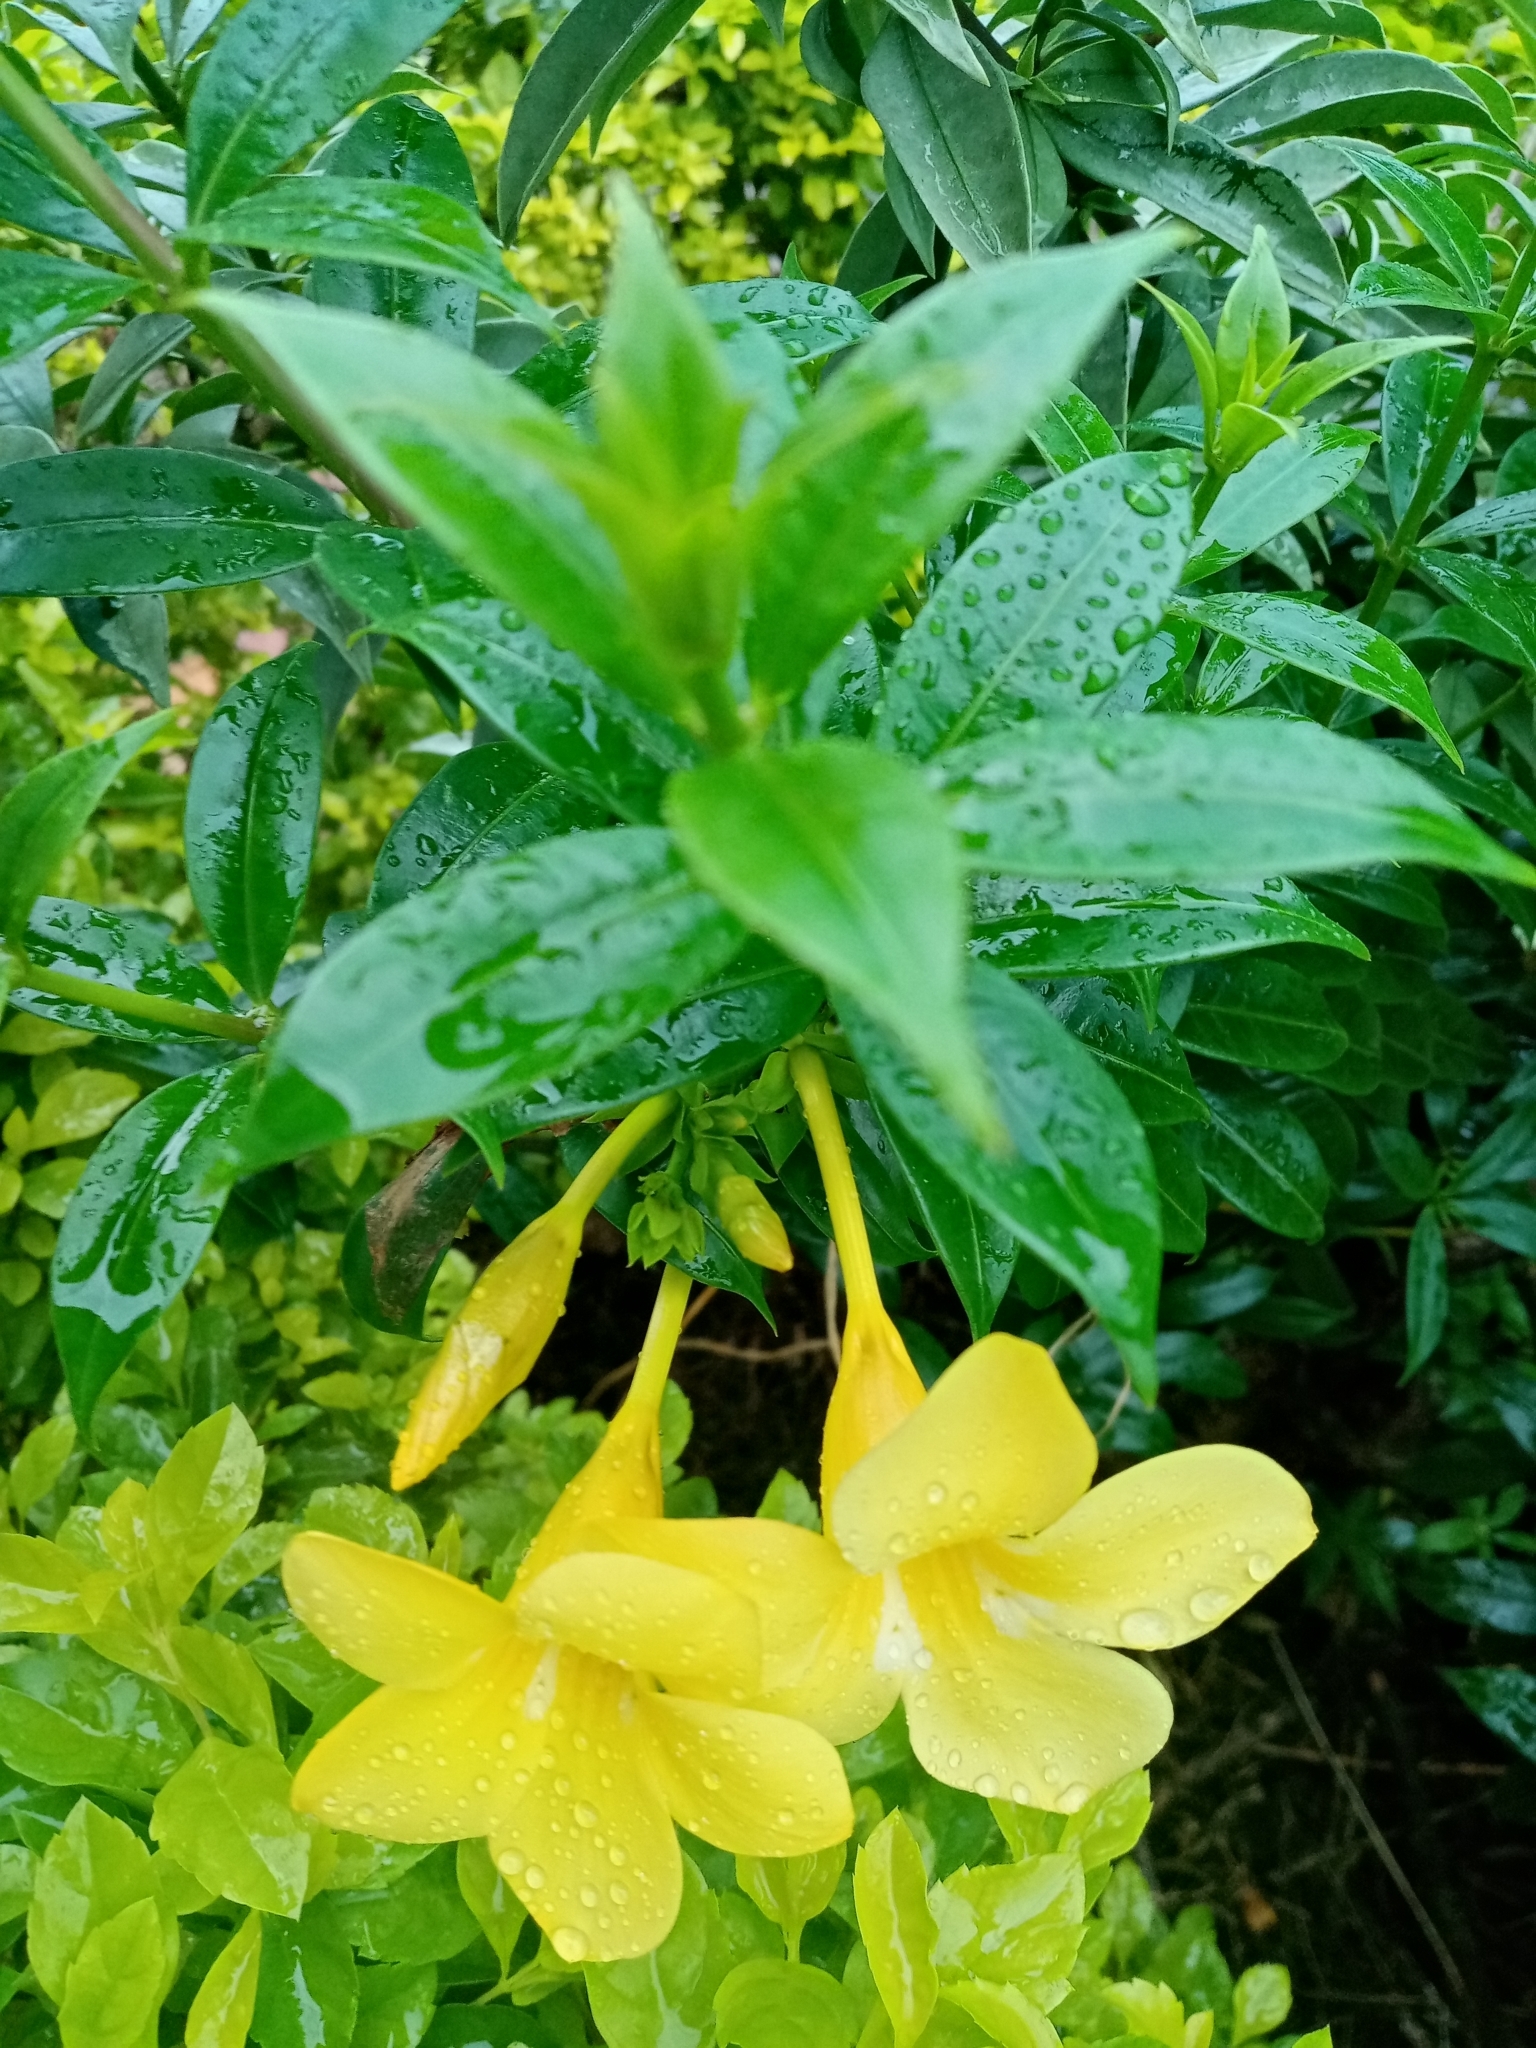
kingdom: Plantae
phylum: Tracheophyta
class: Magnoliopsida
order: Gentianales
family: Apocynaceae
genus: Allamanda
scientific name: Allamanda cathartica
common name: Golden trumpet
